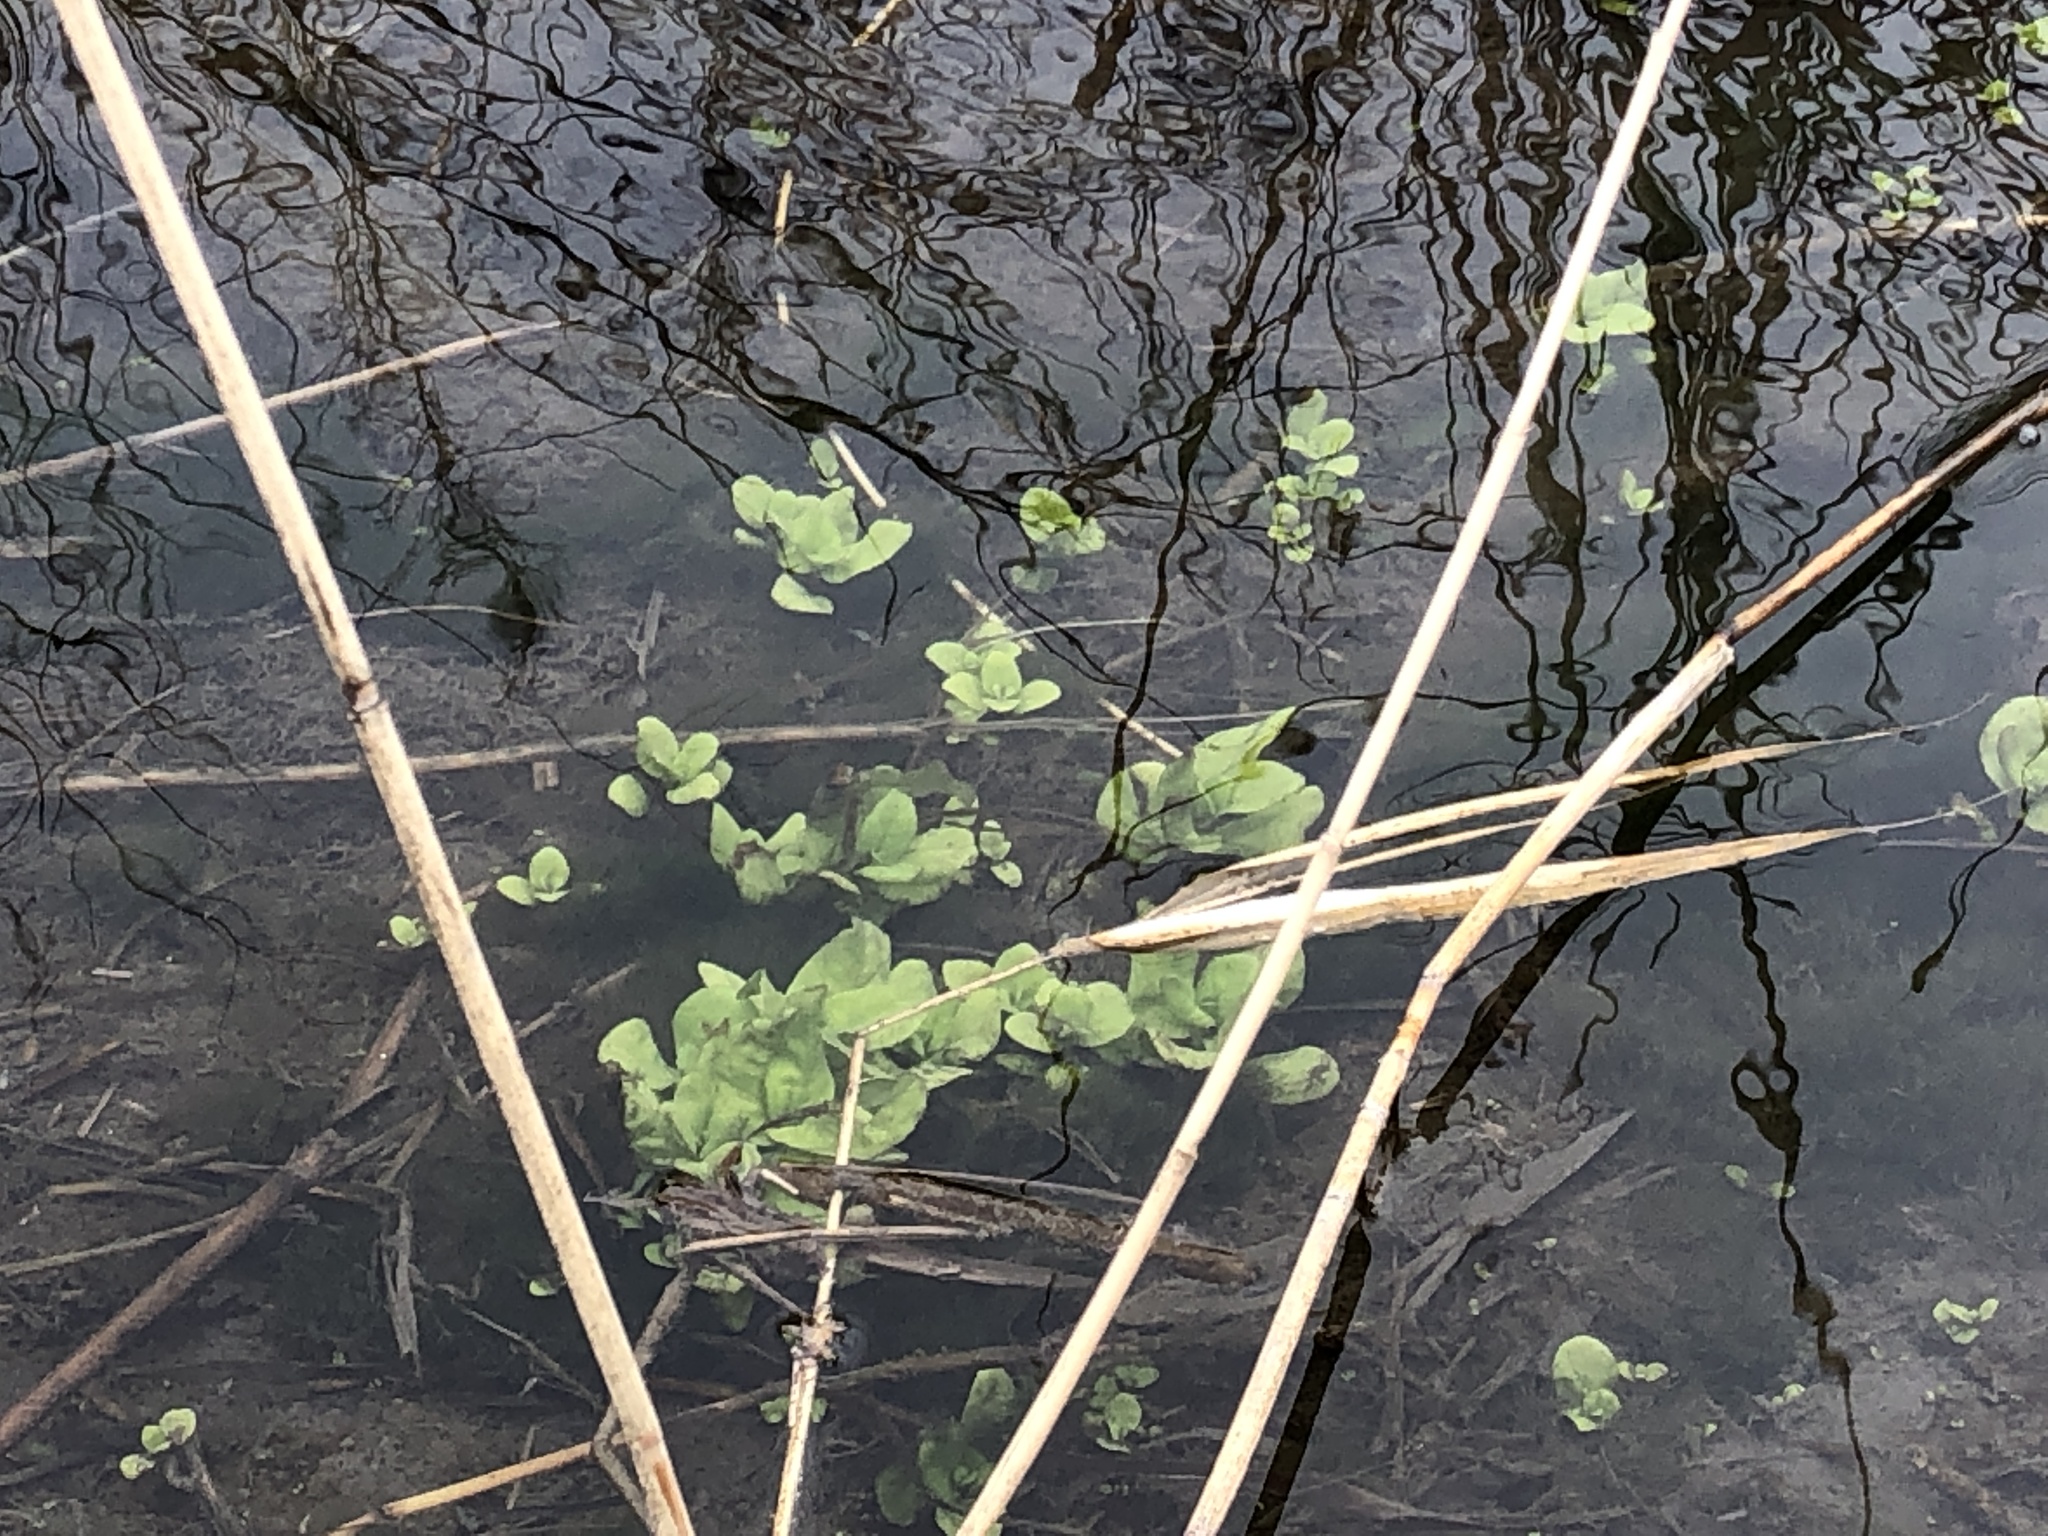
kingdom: Plantae
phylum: Tracheophyta
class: Magnoliopsida
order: Brassicales
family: Brassicaceae
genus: Nasturtium
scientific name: Nasturtium officinale
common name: Watercress
